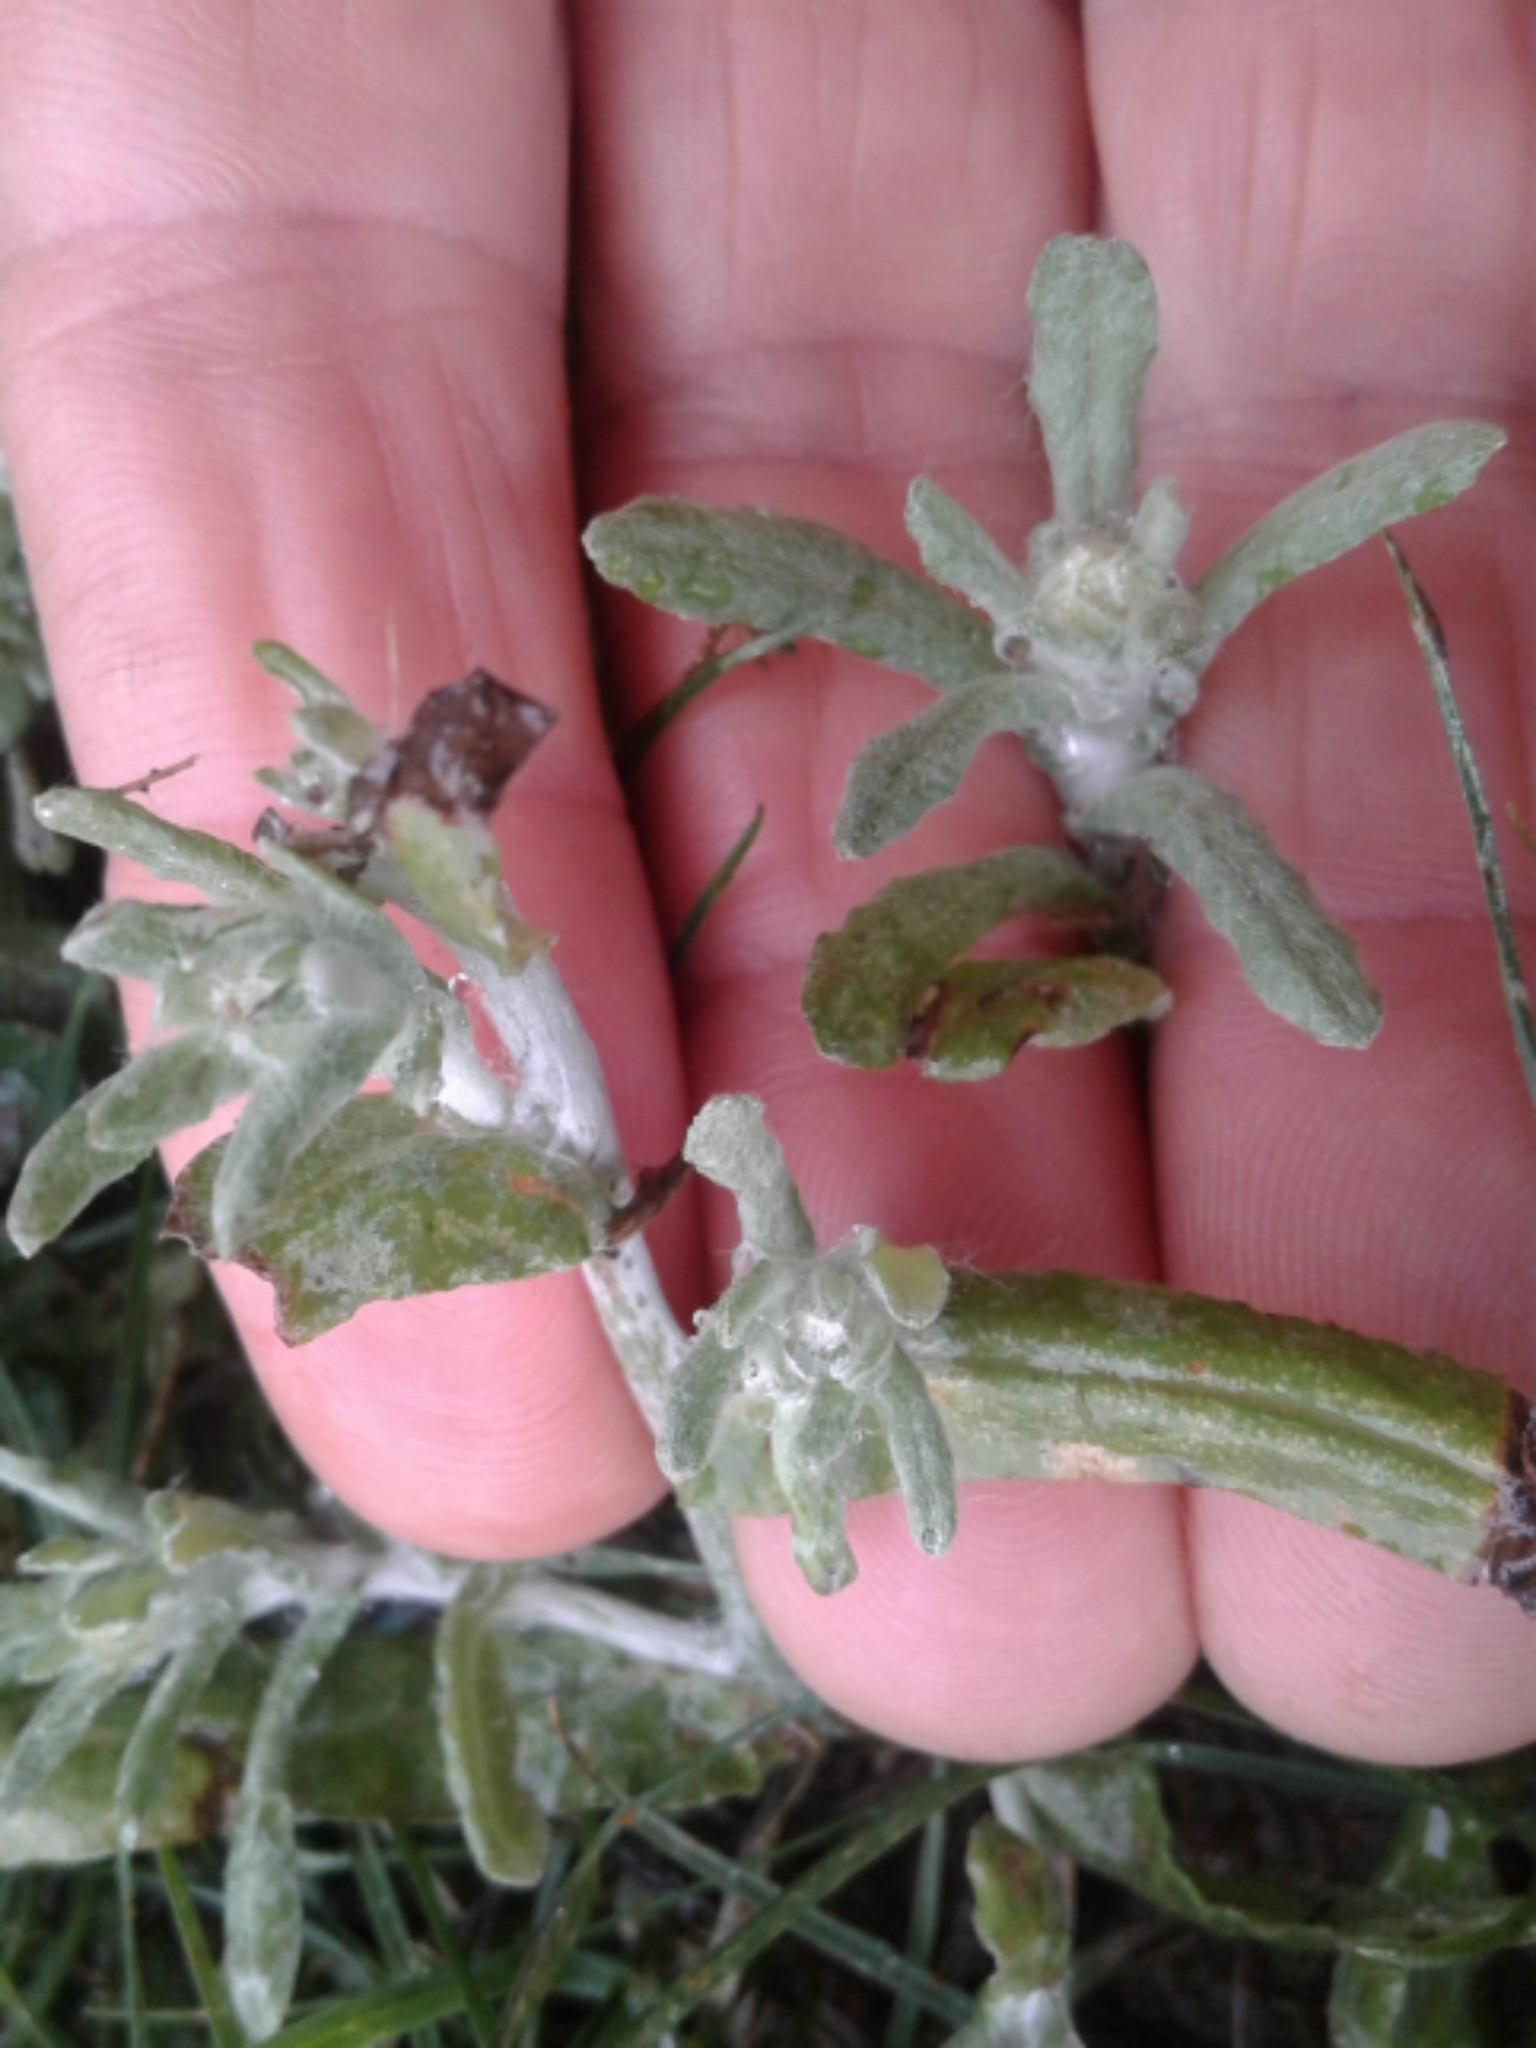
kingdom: Plantae
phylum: Tracheophyta
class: Magnoliopsida
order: Asterales
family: Asteraceae
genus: Helichrysum
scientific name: Helichrysum luteoalbum
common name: Daisy
